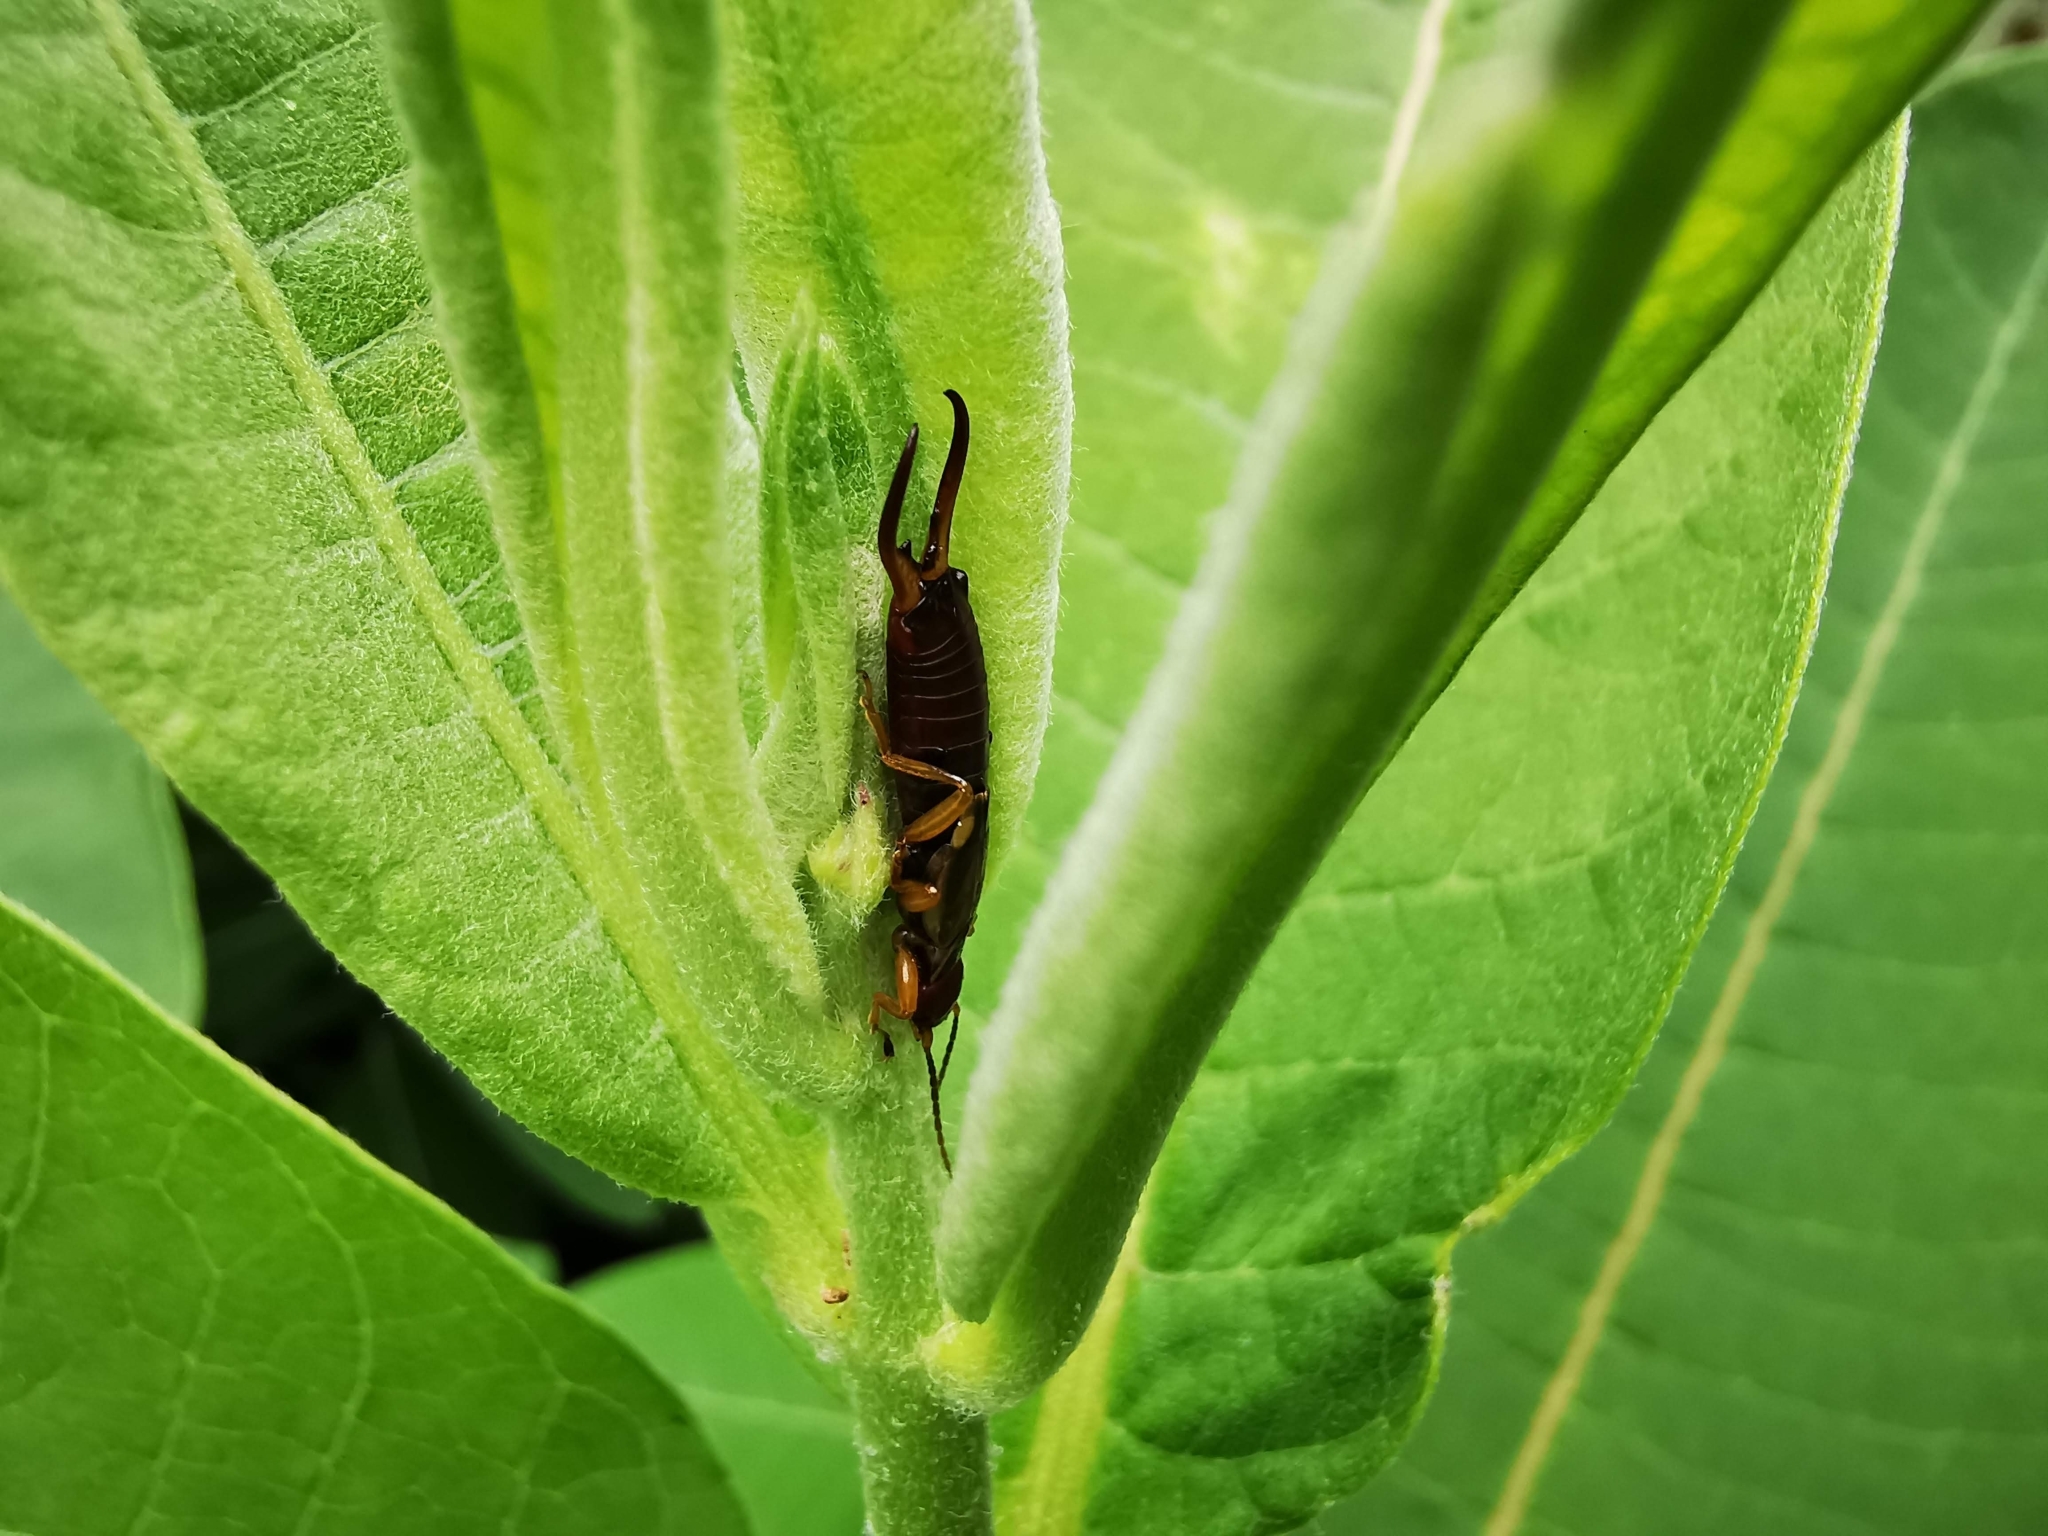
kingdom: Animalia
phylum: Arthropoda
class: Insecta
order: Dermaptera
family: Forficulidae
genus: Forficula
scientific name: Forficula
